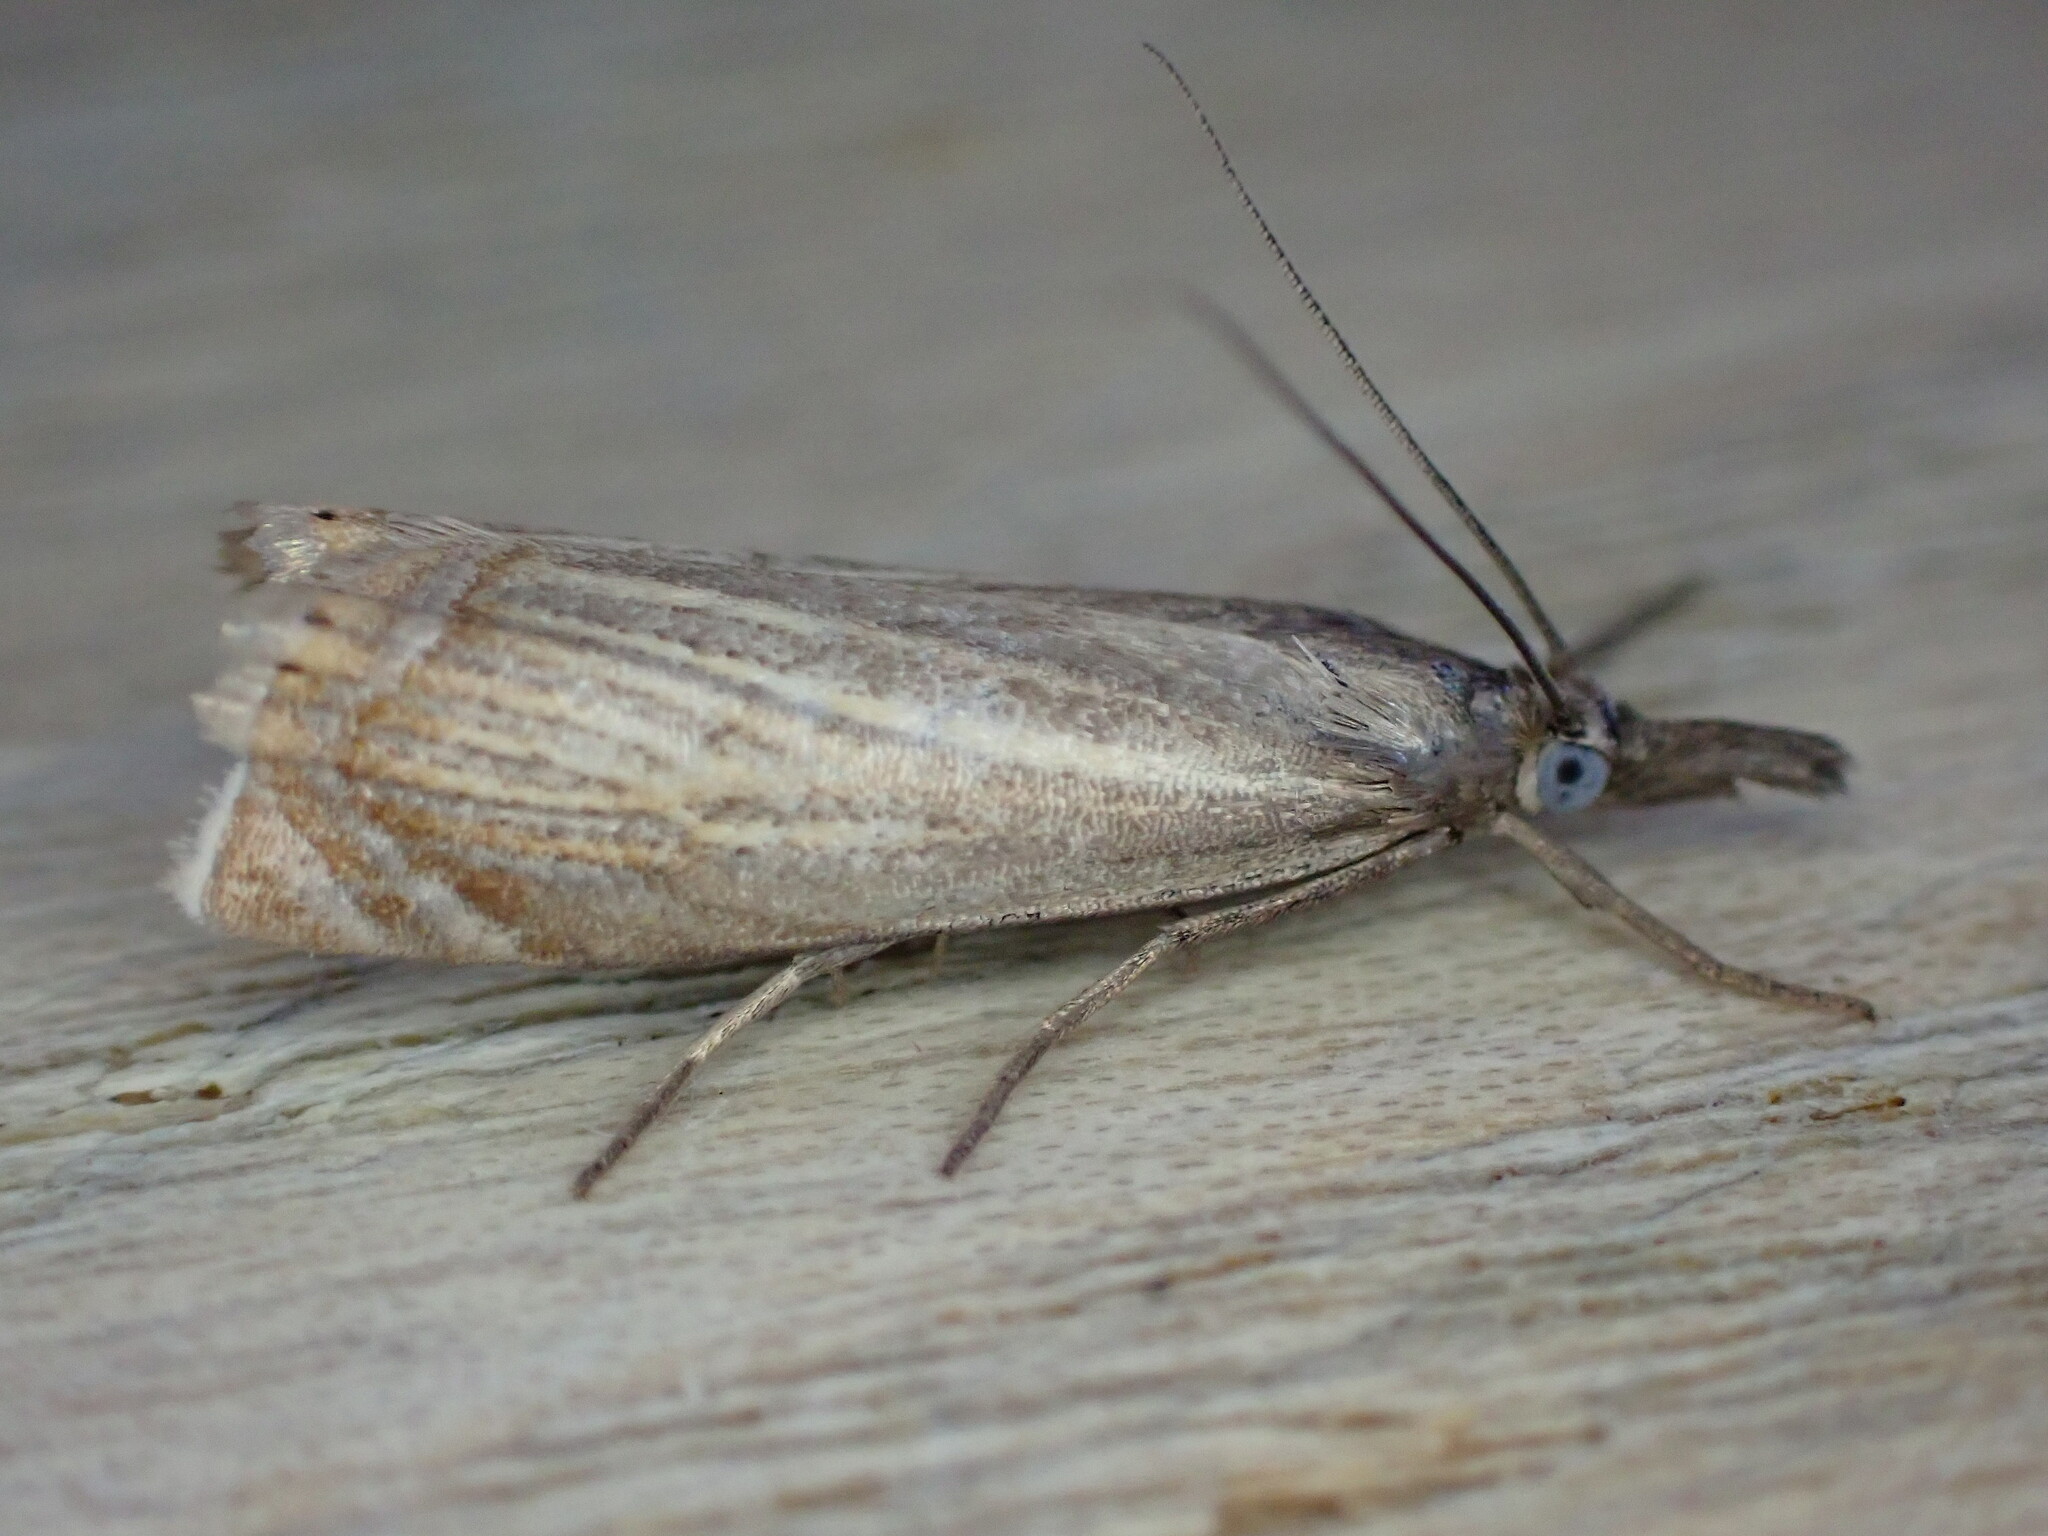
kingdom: Animalia
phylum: Arthropoda
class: Insecta
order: Lepidoptera
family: Crambidae
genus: Chrysoteuchia
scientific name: Chrysoteuchia culmella
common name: Garden grass-veneer
